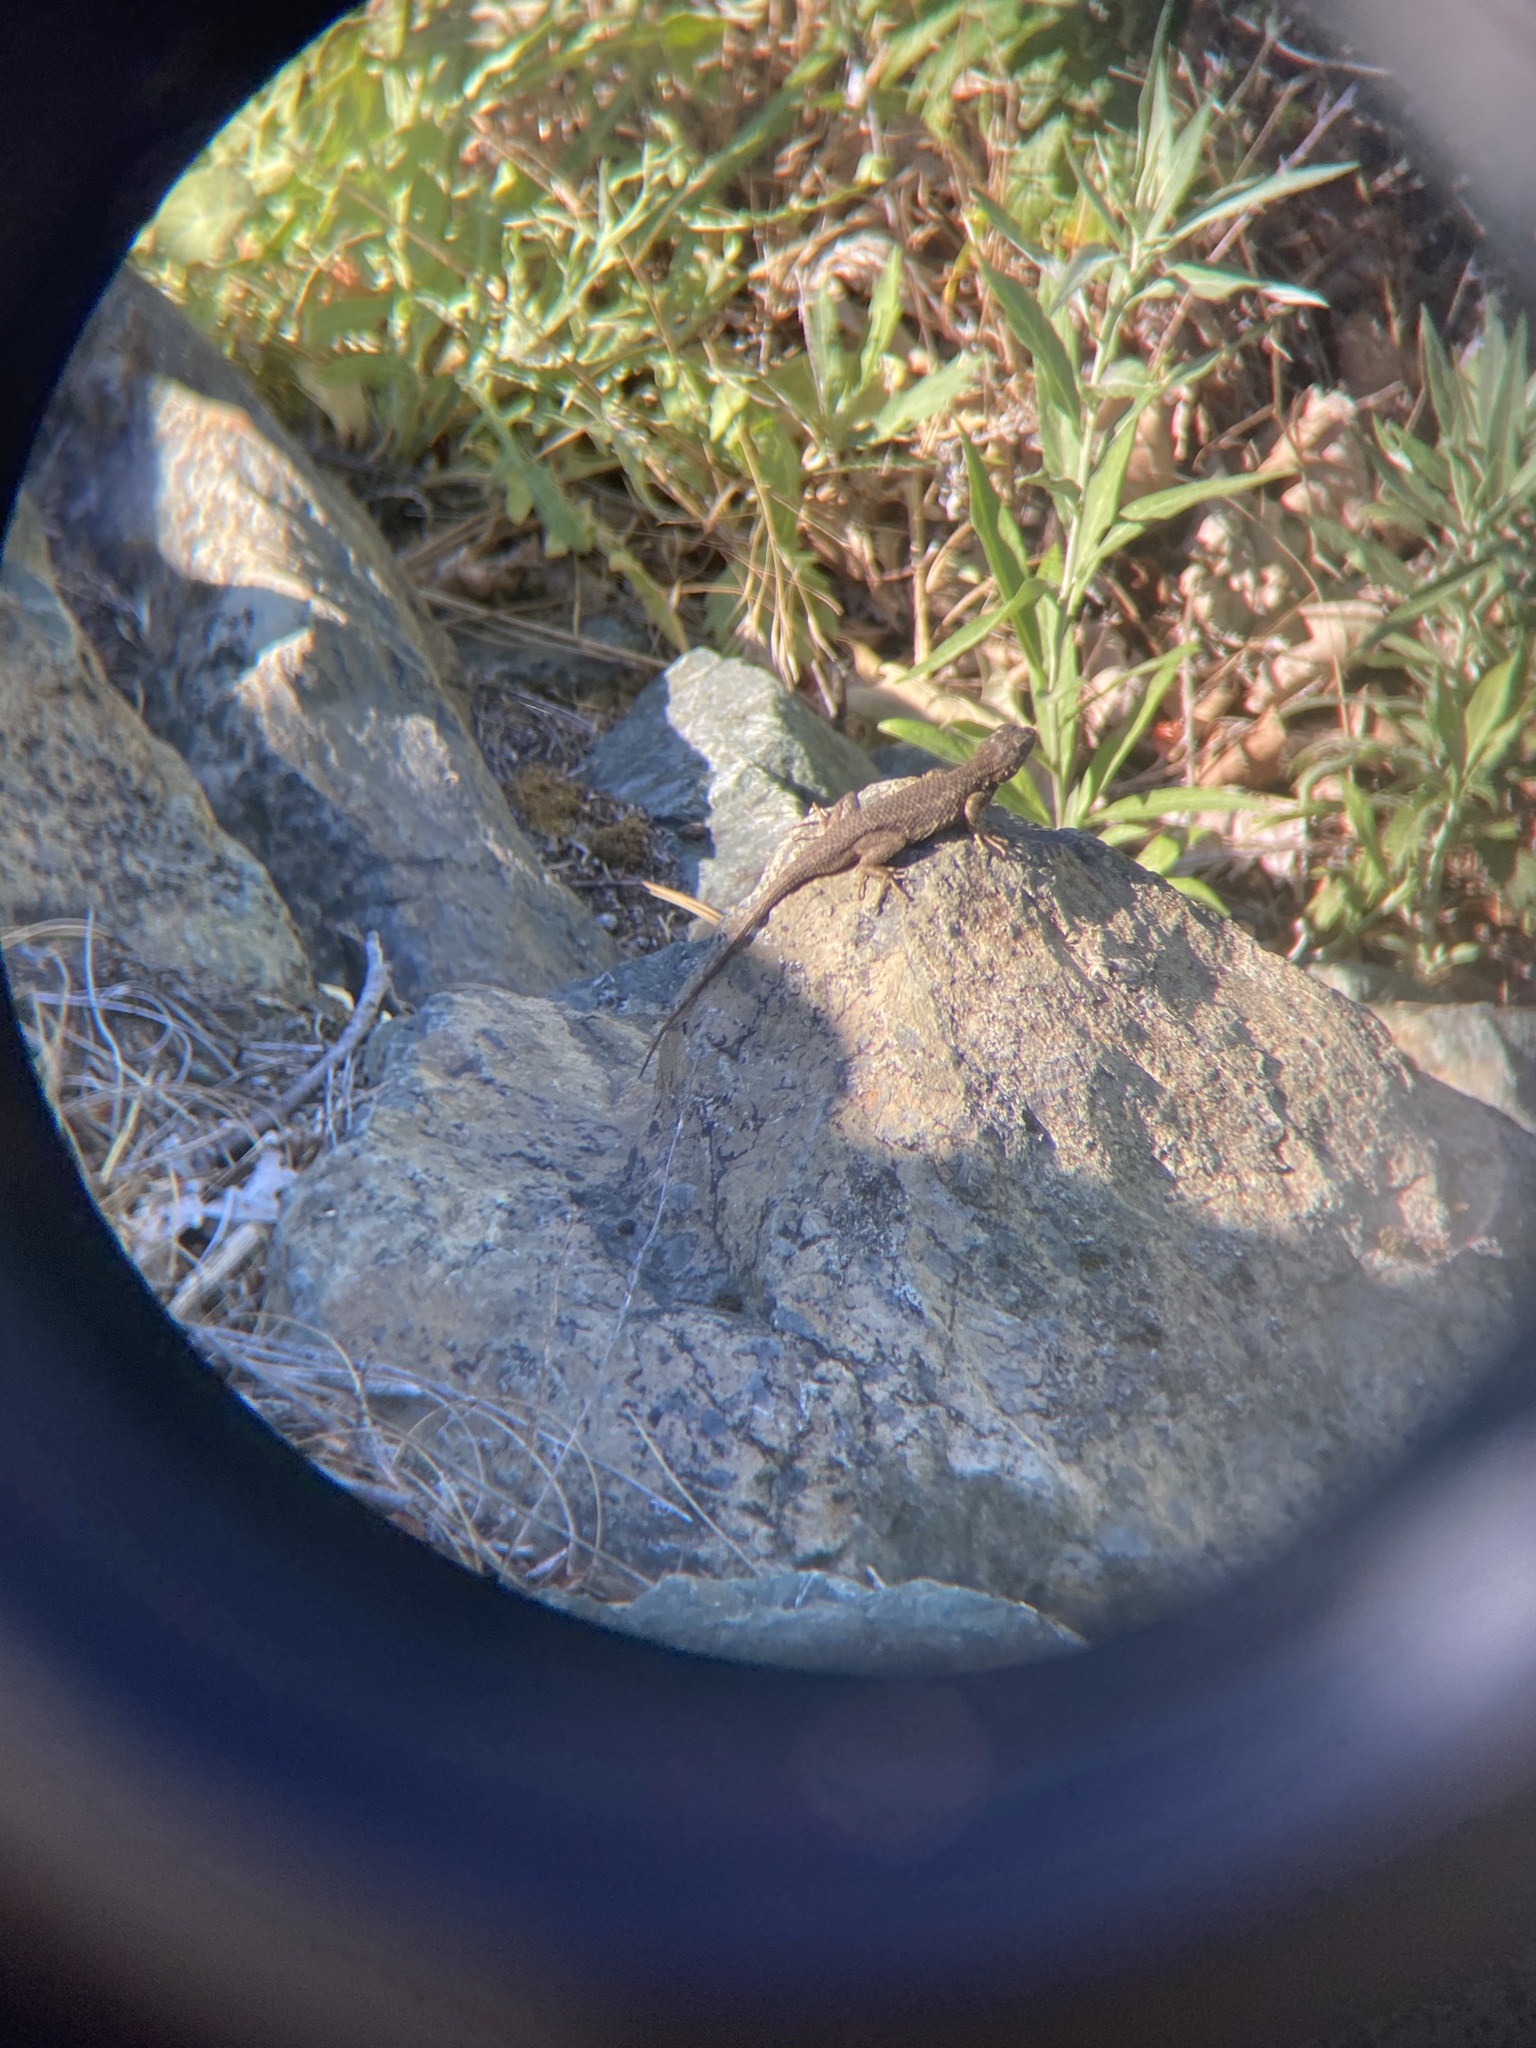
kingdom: Animalia
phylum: Chordata
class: Squamata
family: Phrynosomatidae
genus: Sceloporus
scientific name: Sceloporus occidentalis
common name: Western fence lizard
